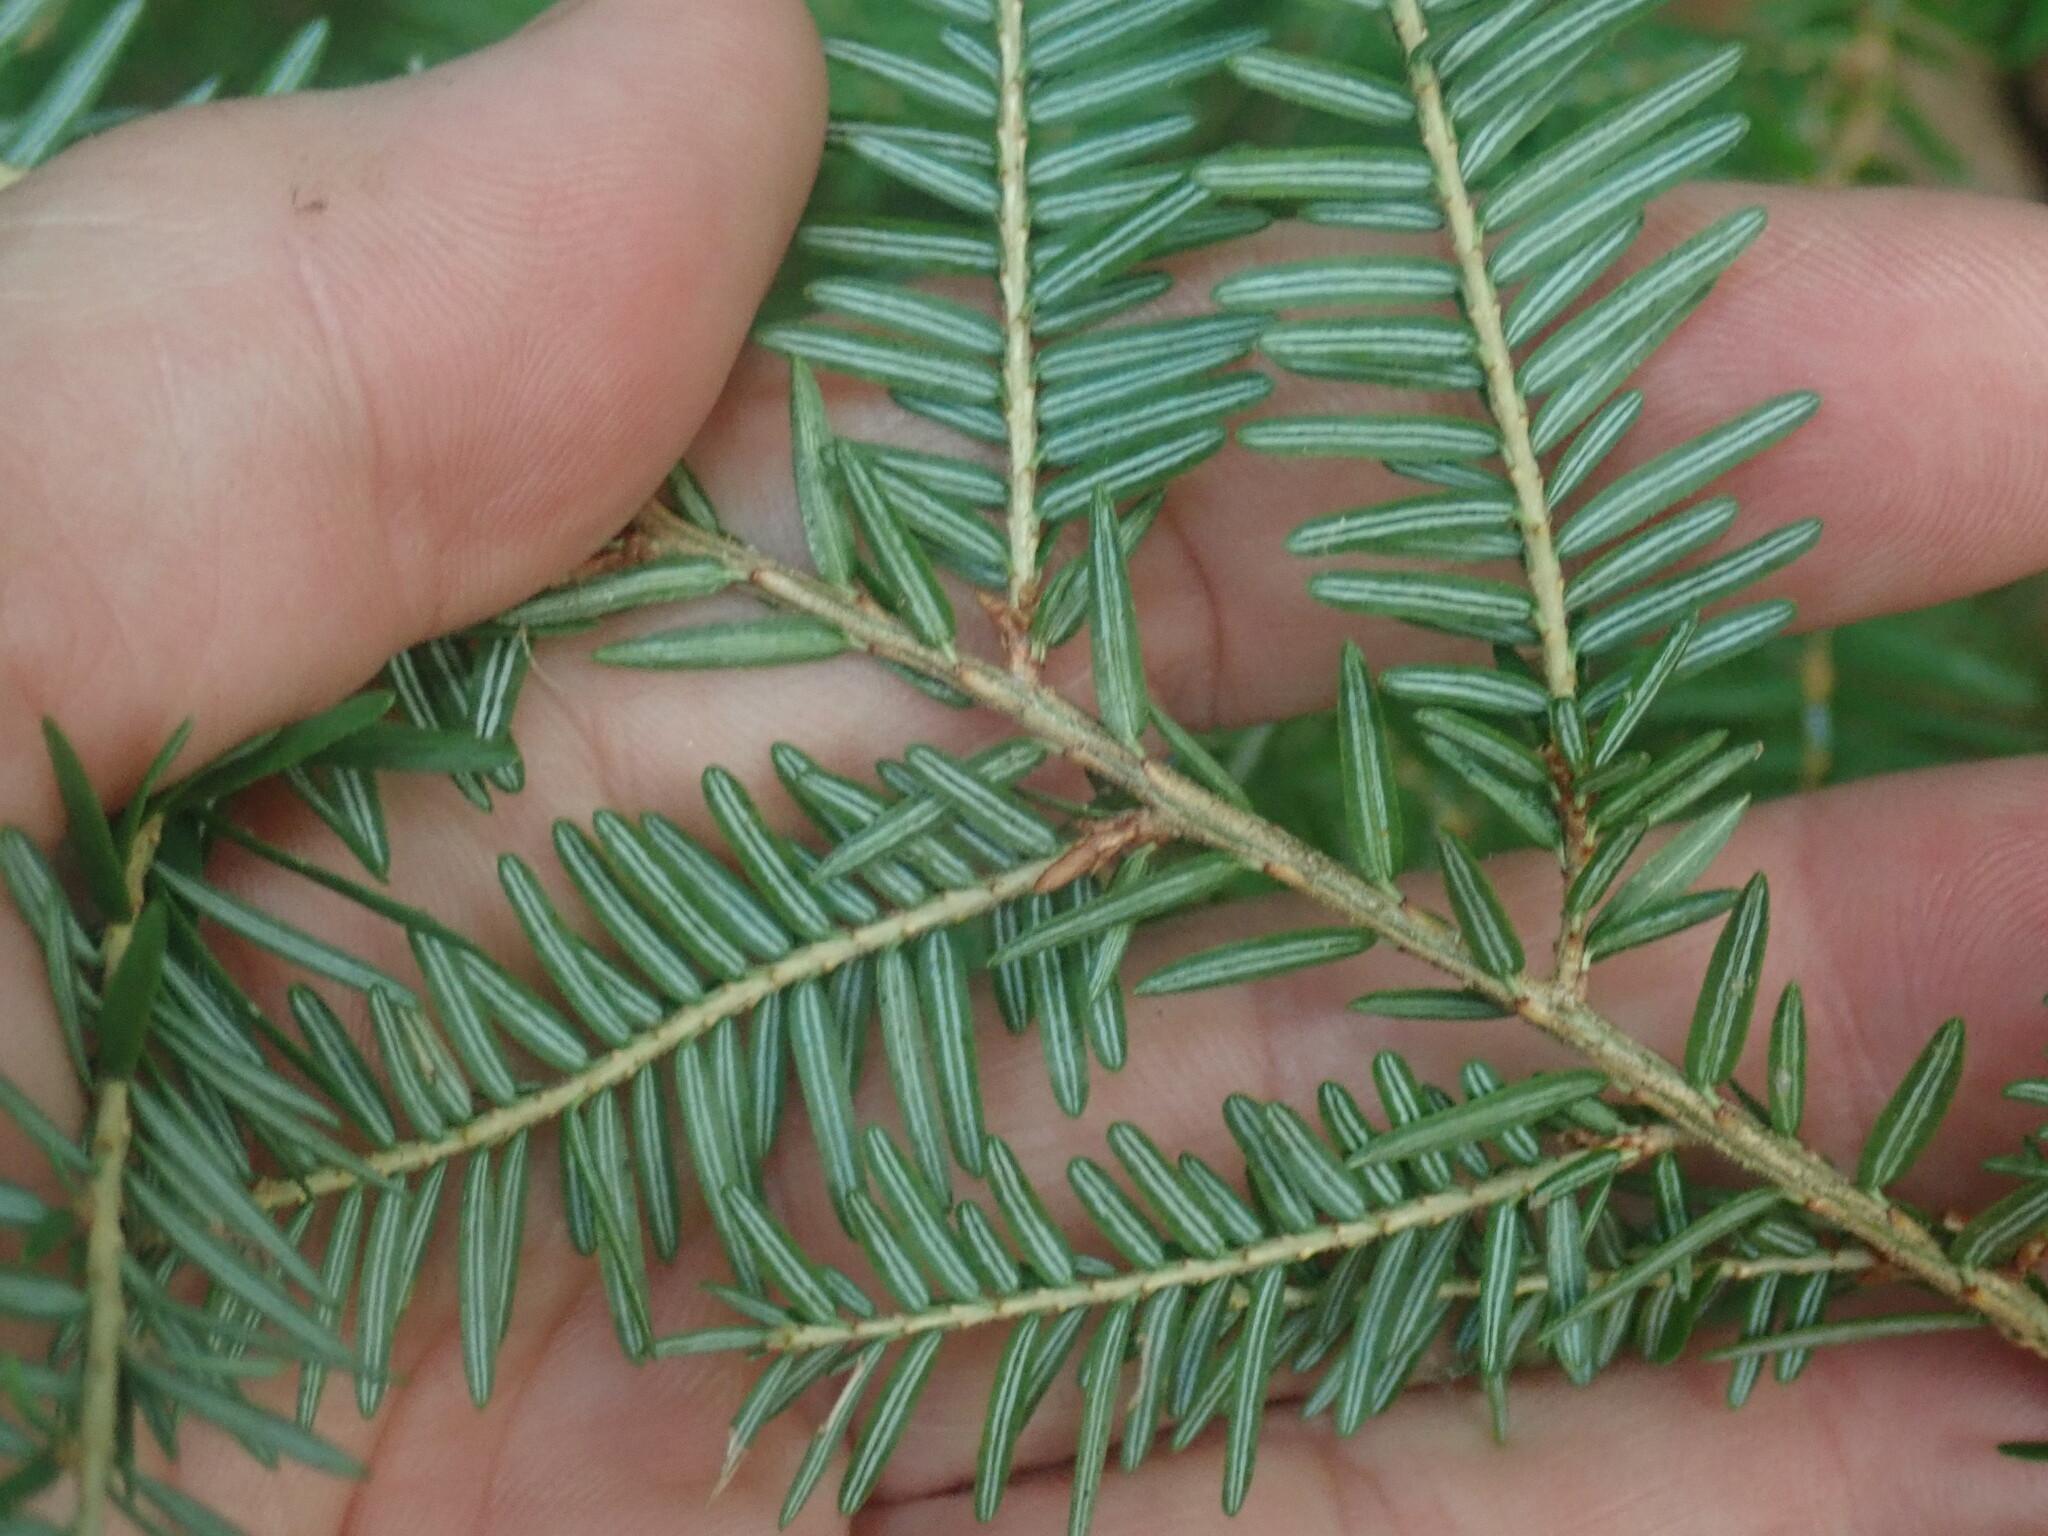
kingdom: Plantae
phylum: Tracheophyta
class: Pinopsida
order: Pinales
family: Pinaceae
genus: Tsuga
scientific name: Tsuga canadensis
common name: Eastern hemlock
